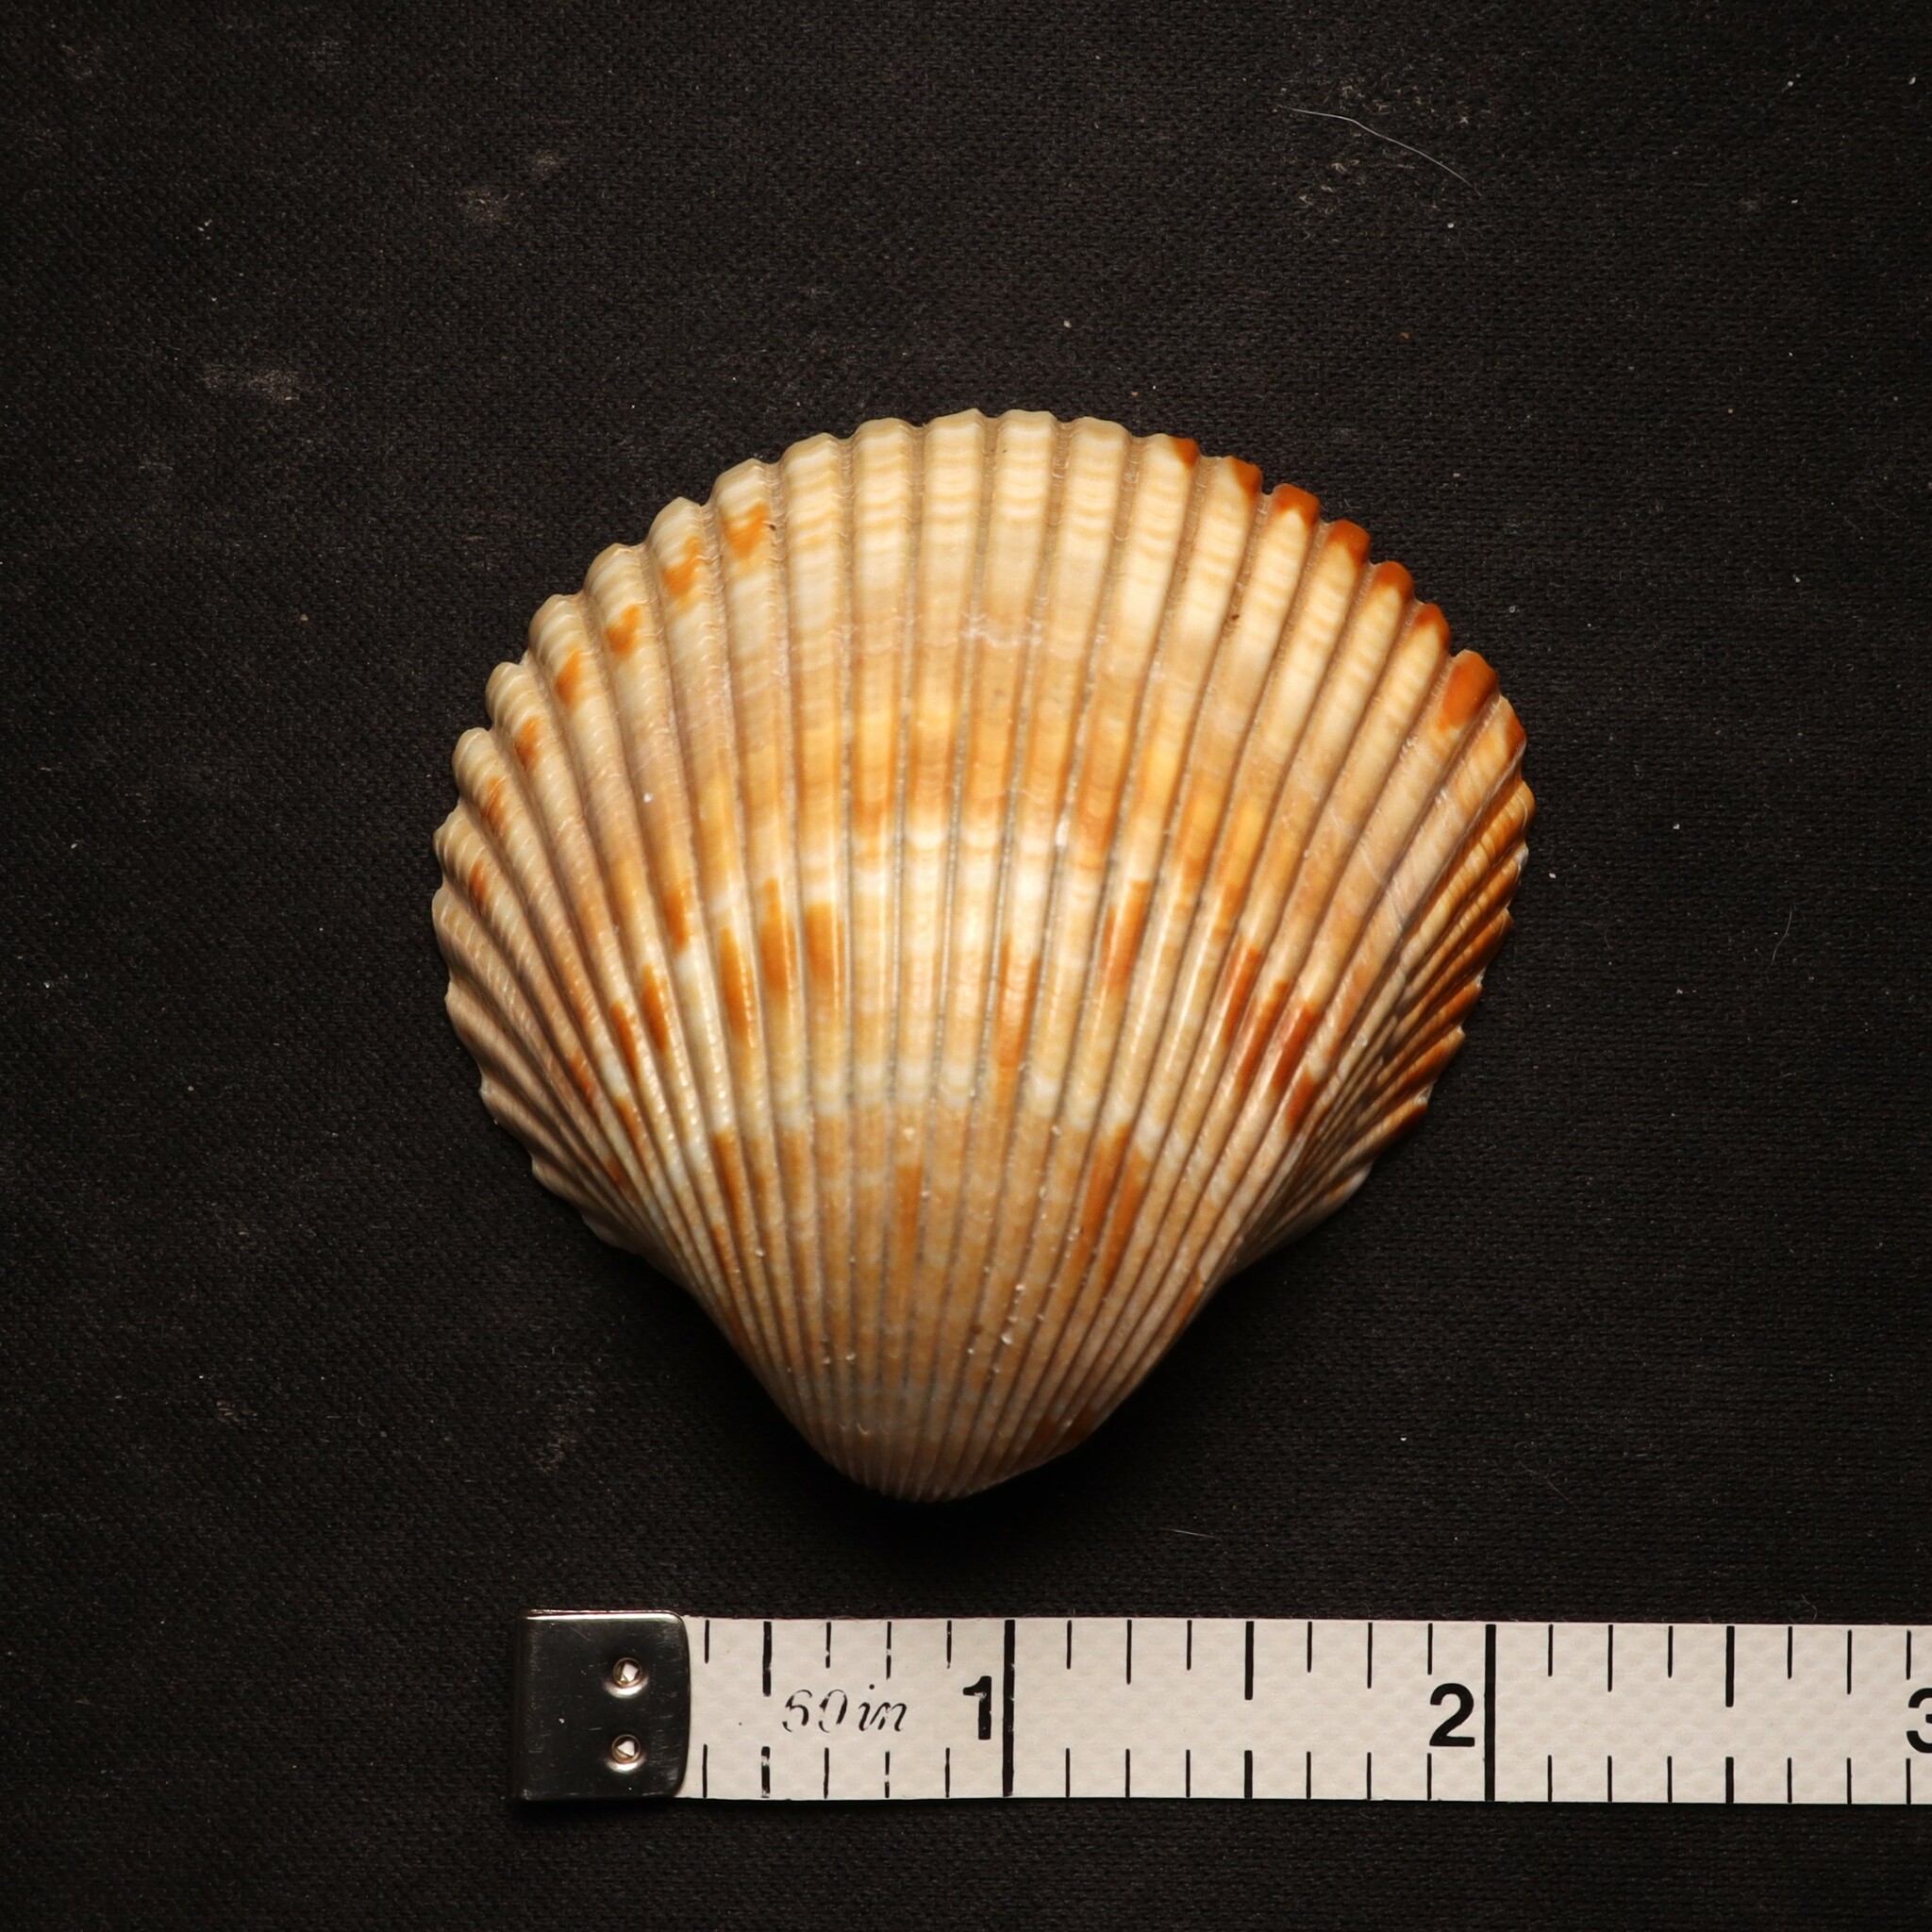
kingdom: Animalia
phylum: Mollusca
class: Bivalvia
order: Cardiida
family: Cardiidae
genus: Dinocardium
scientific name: Dinocardium robustum
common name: Atlantic giant cockle
